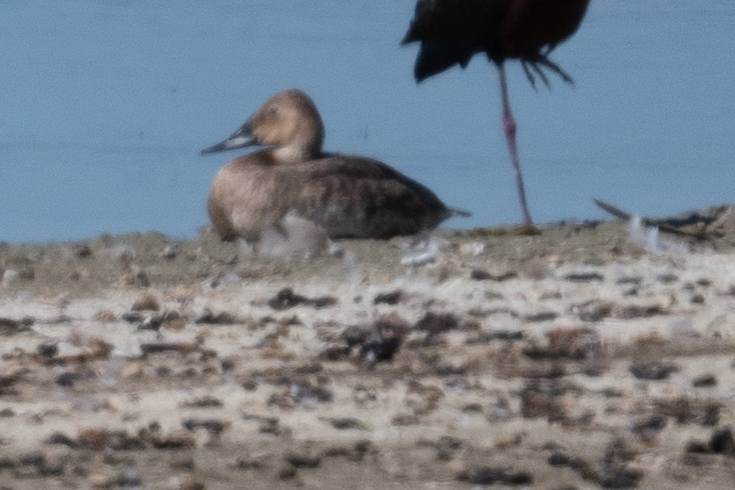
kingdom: Animalia
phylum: Chordata
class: Aves
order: Anseriformes
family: Anatidae
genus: Aythya
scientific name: Aythya valisineria
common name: Canvasback
